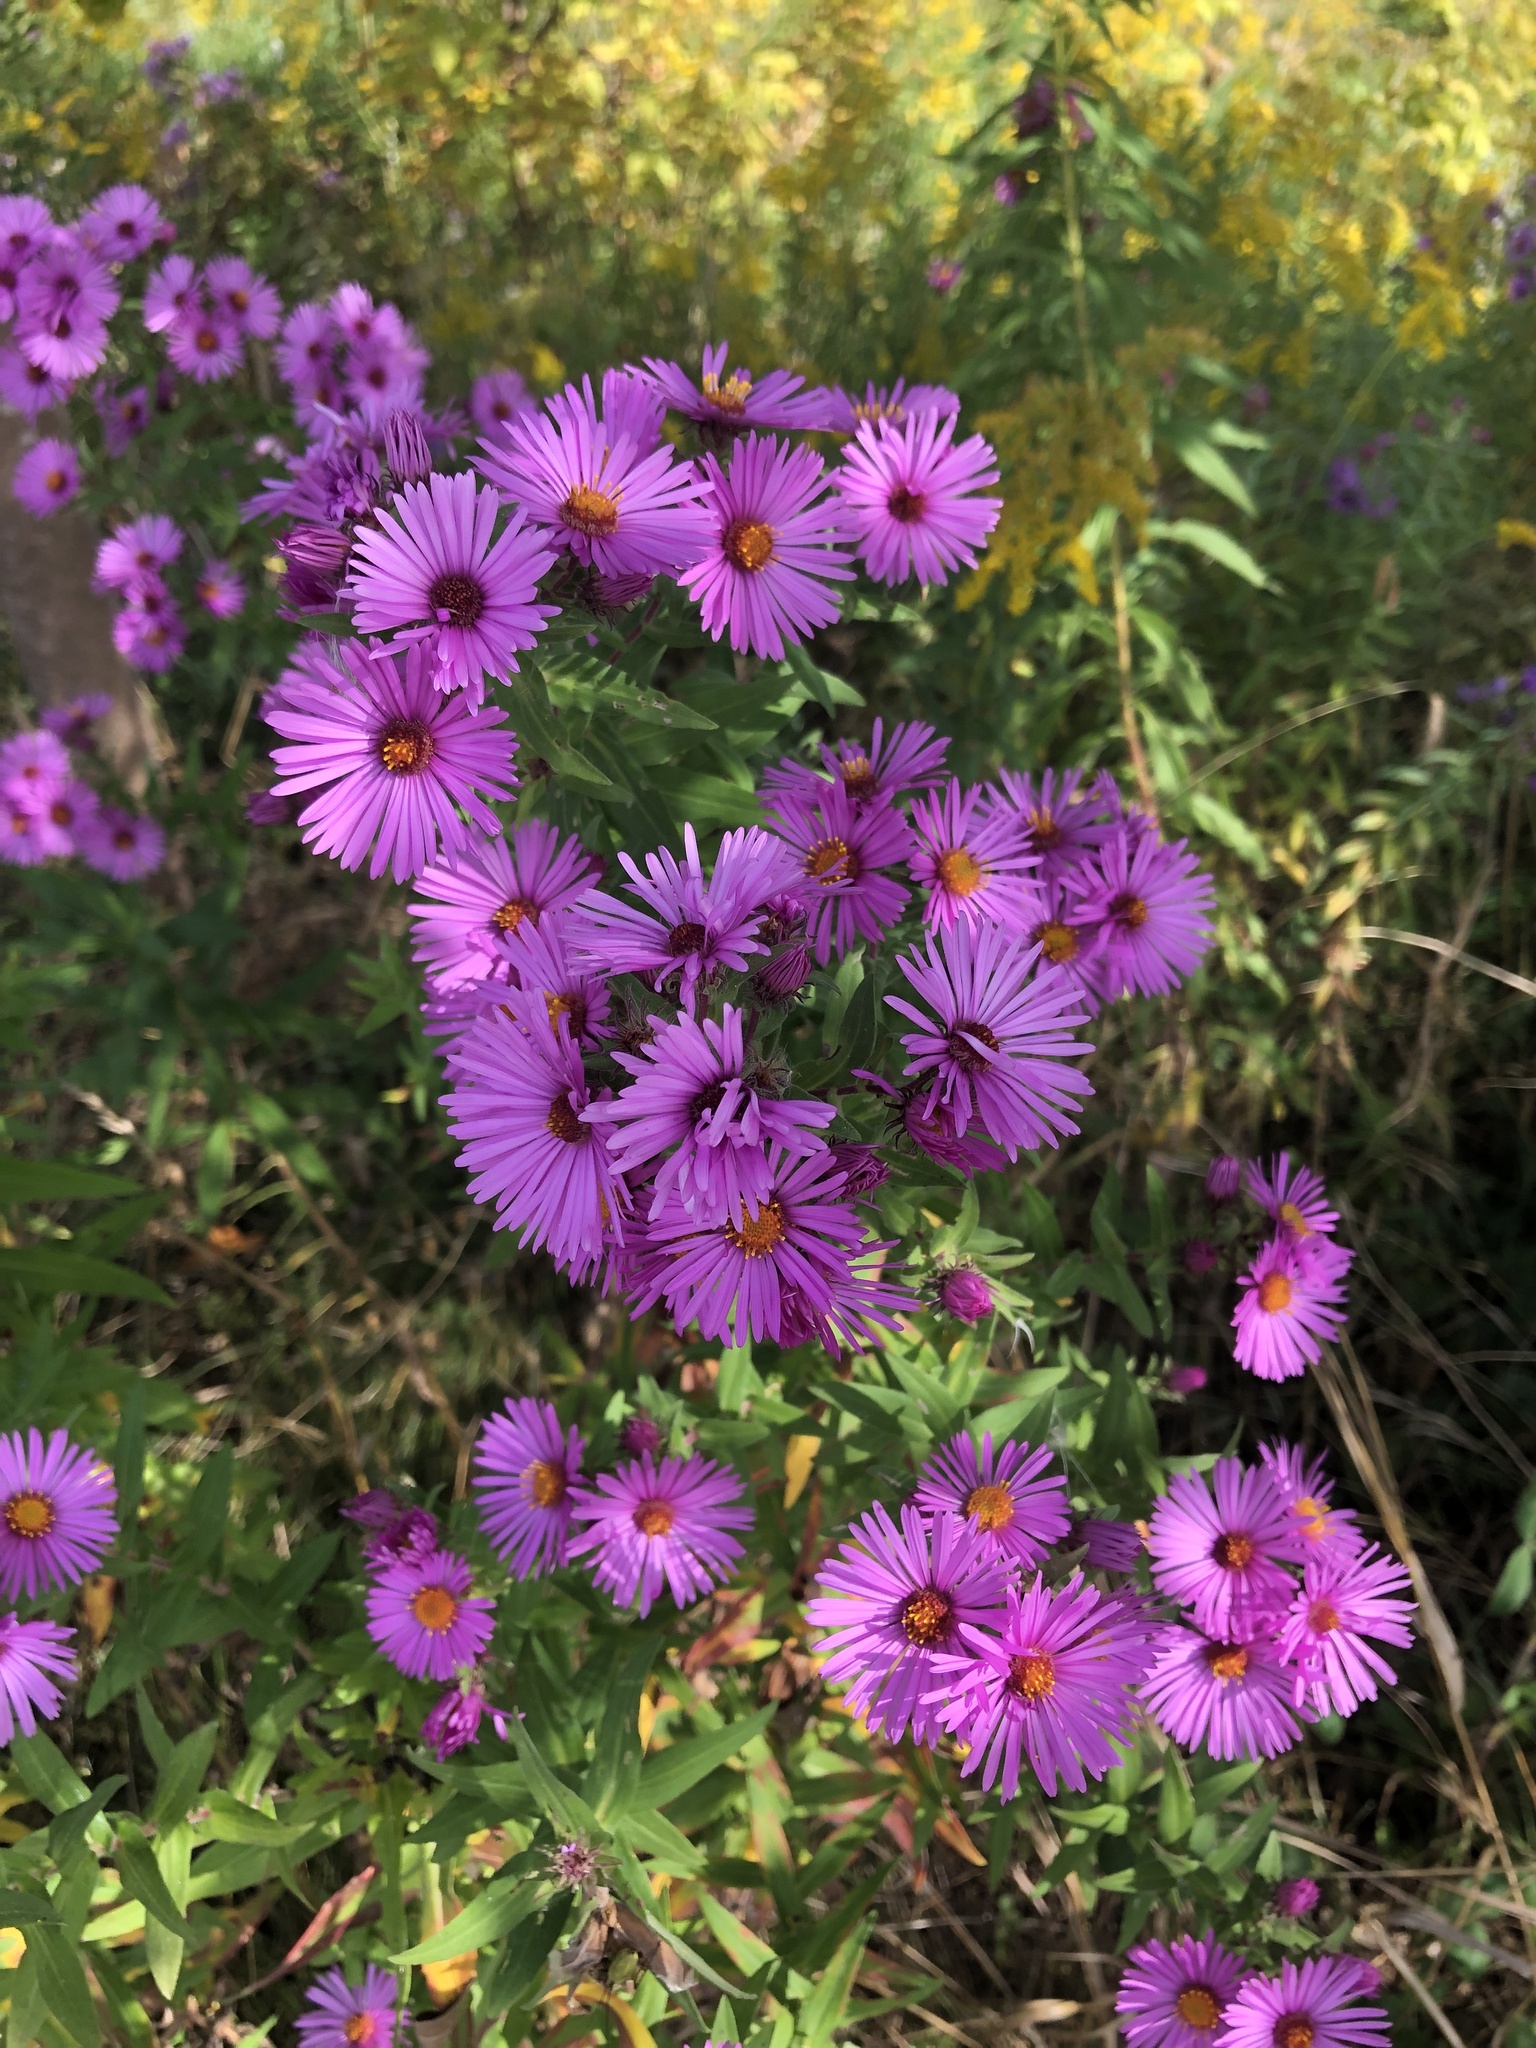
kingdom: Plantae
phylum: Tracheophyta
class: Magnoliopsida
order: Asterales
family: Asteraceae
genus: Symphyotrichum
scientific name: Symphyotrichum novae-angliae
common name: Michaelmas daisy
